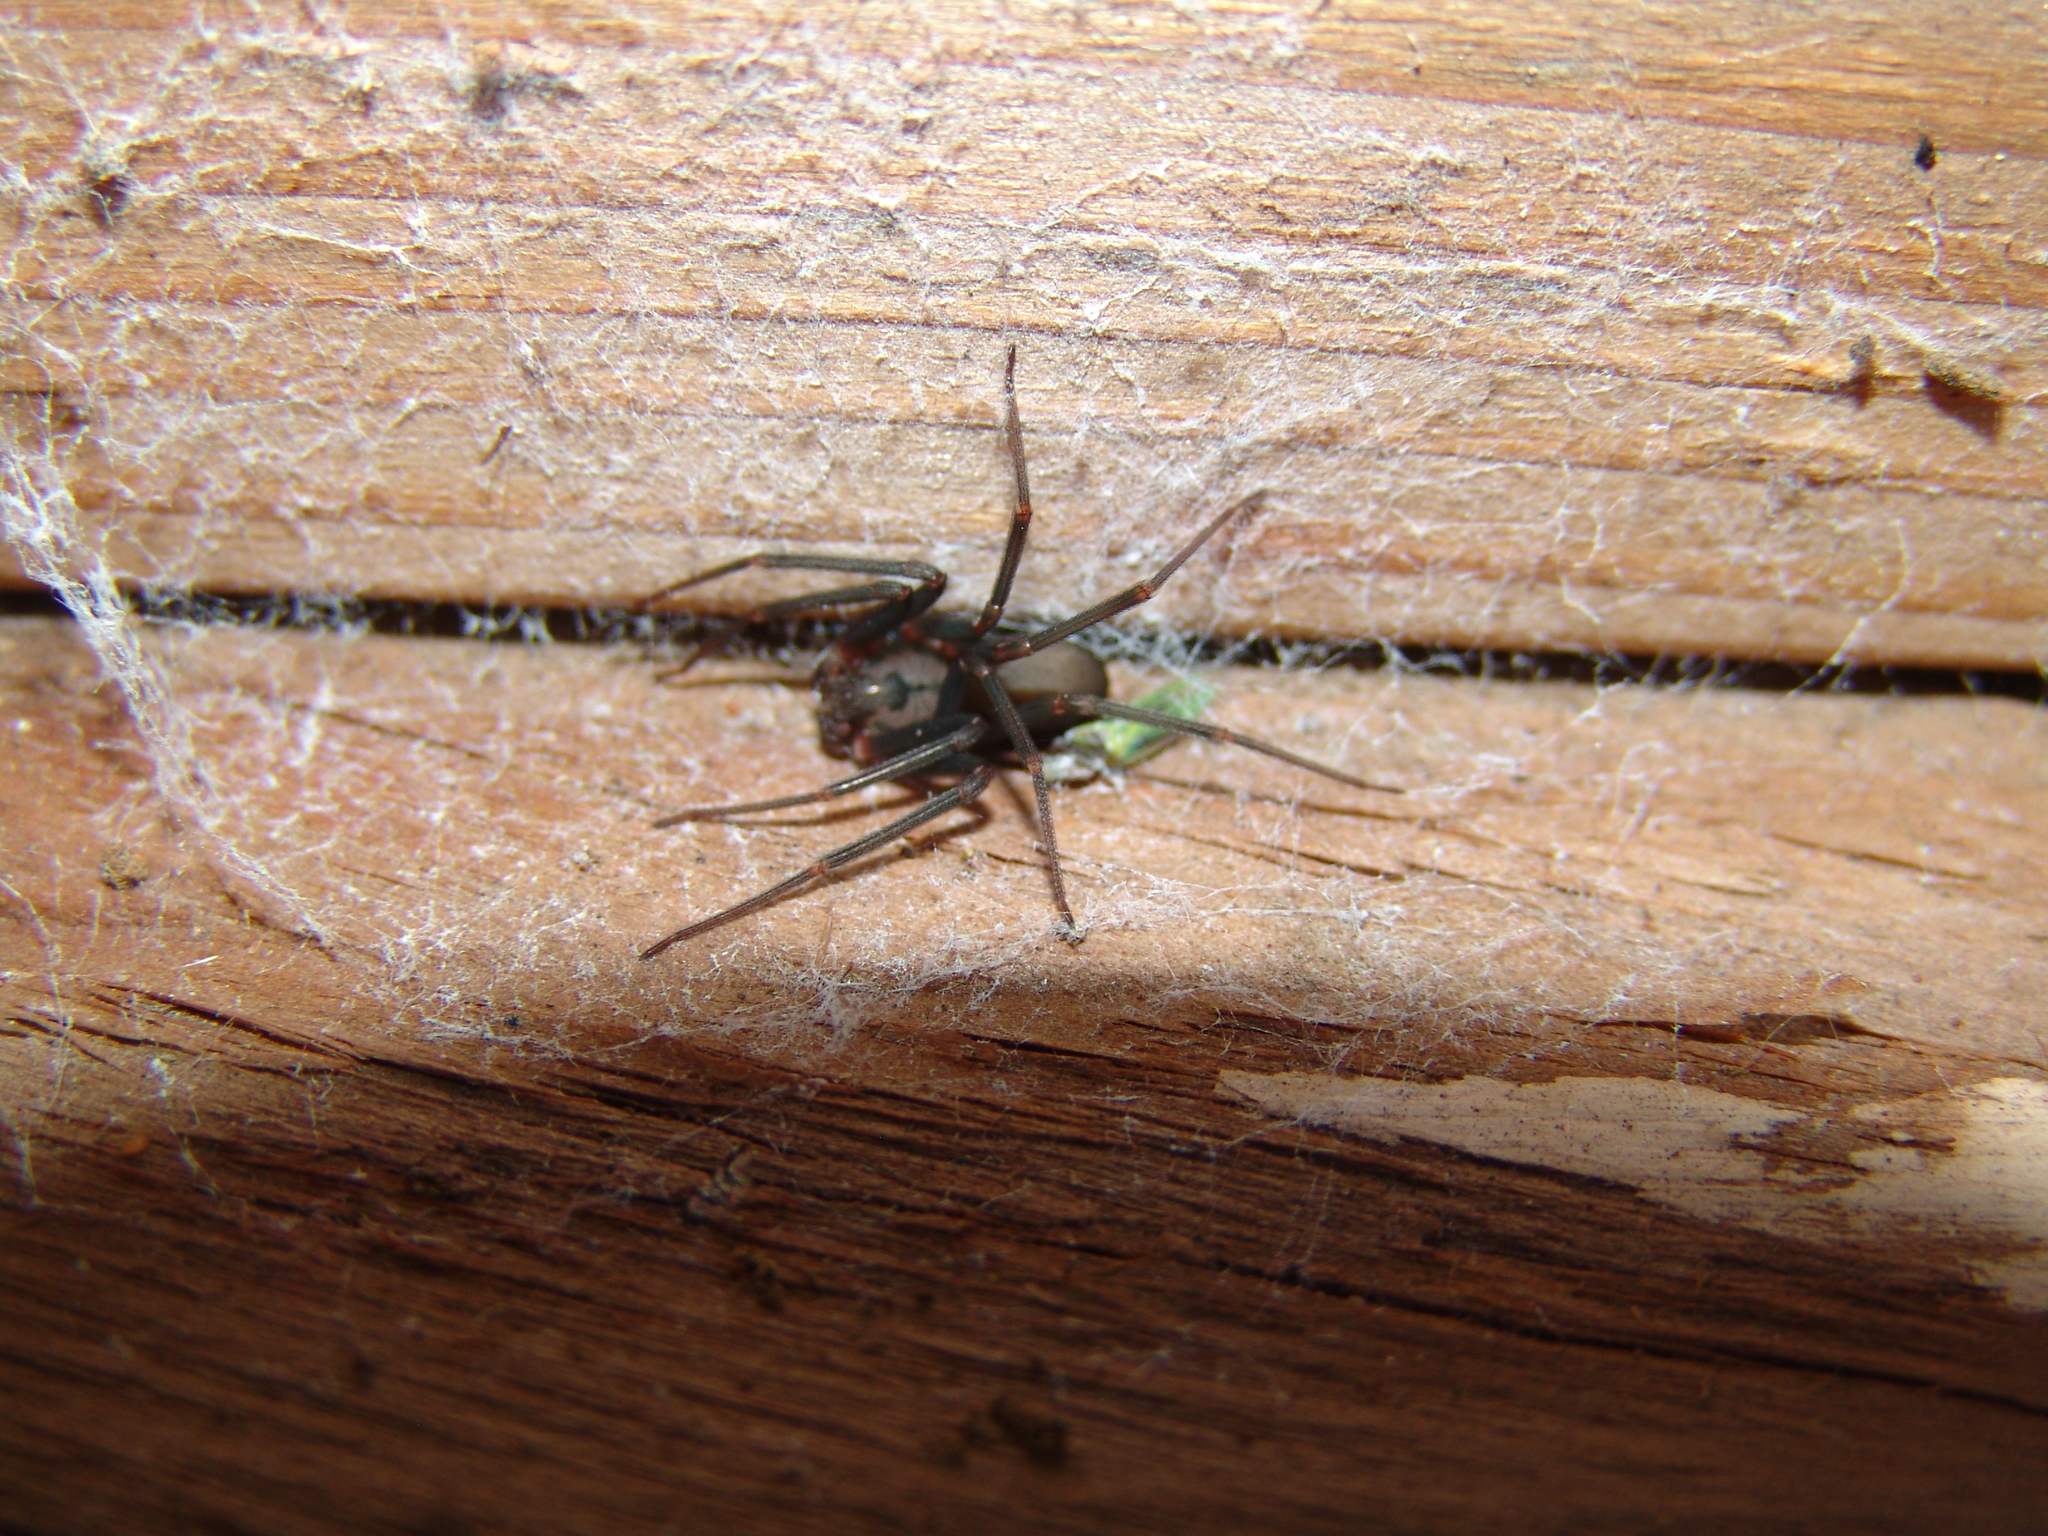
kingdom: Animalia
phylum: Arthropoda
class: Arachnida
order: Araneae
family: Sicariidae
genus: Loxosceles
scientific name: Loxosceles reclusa
